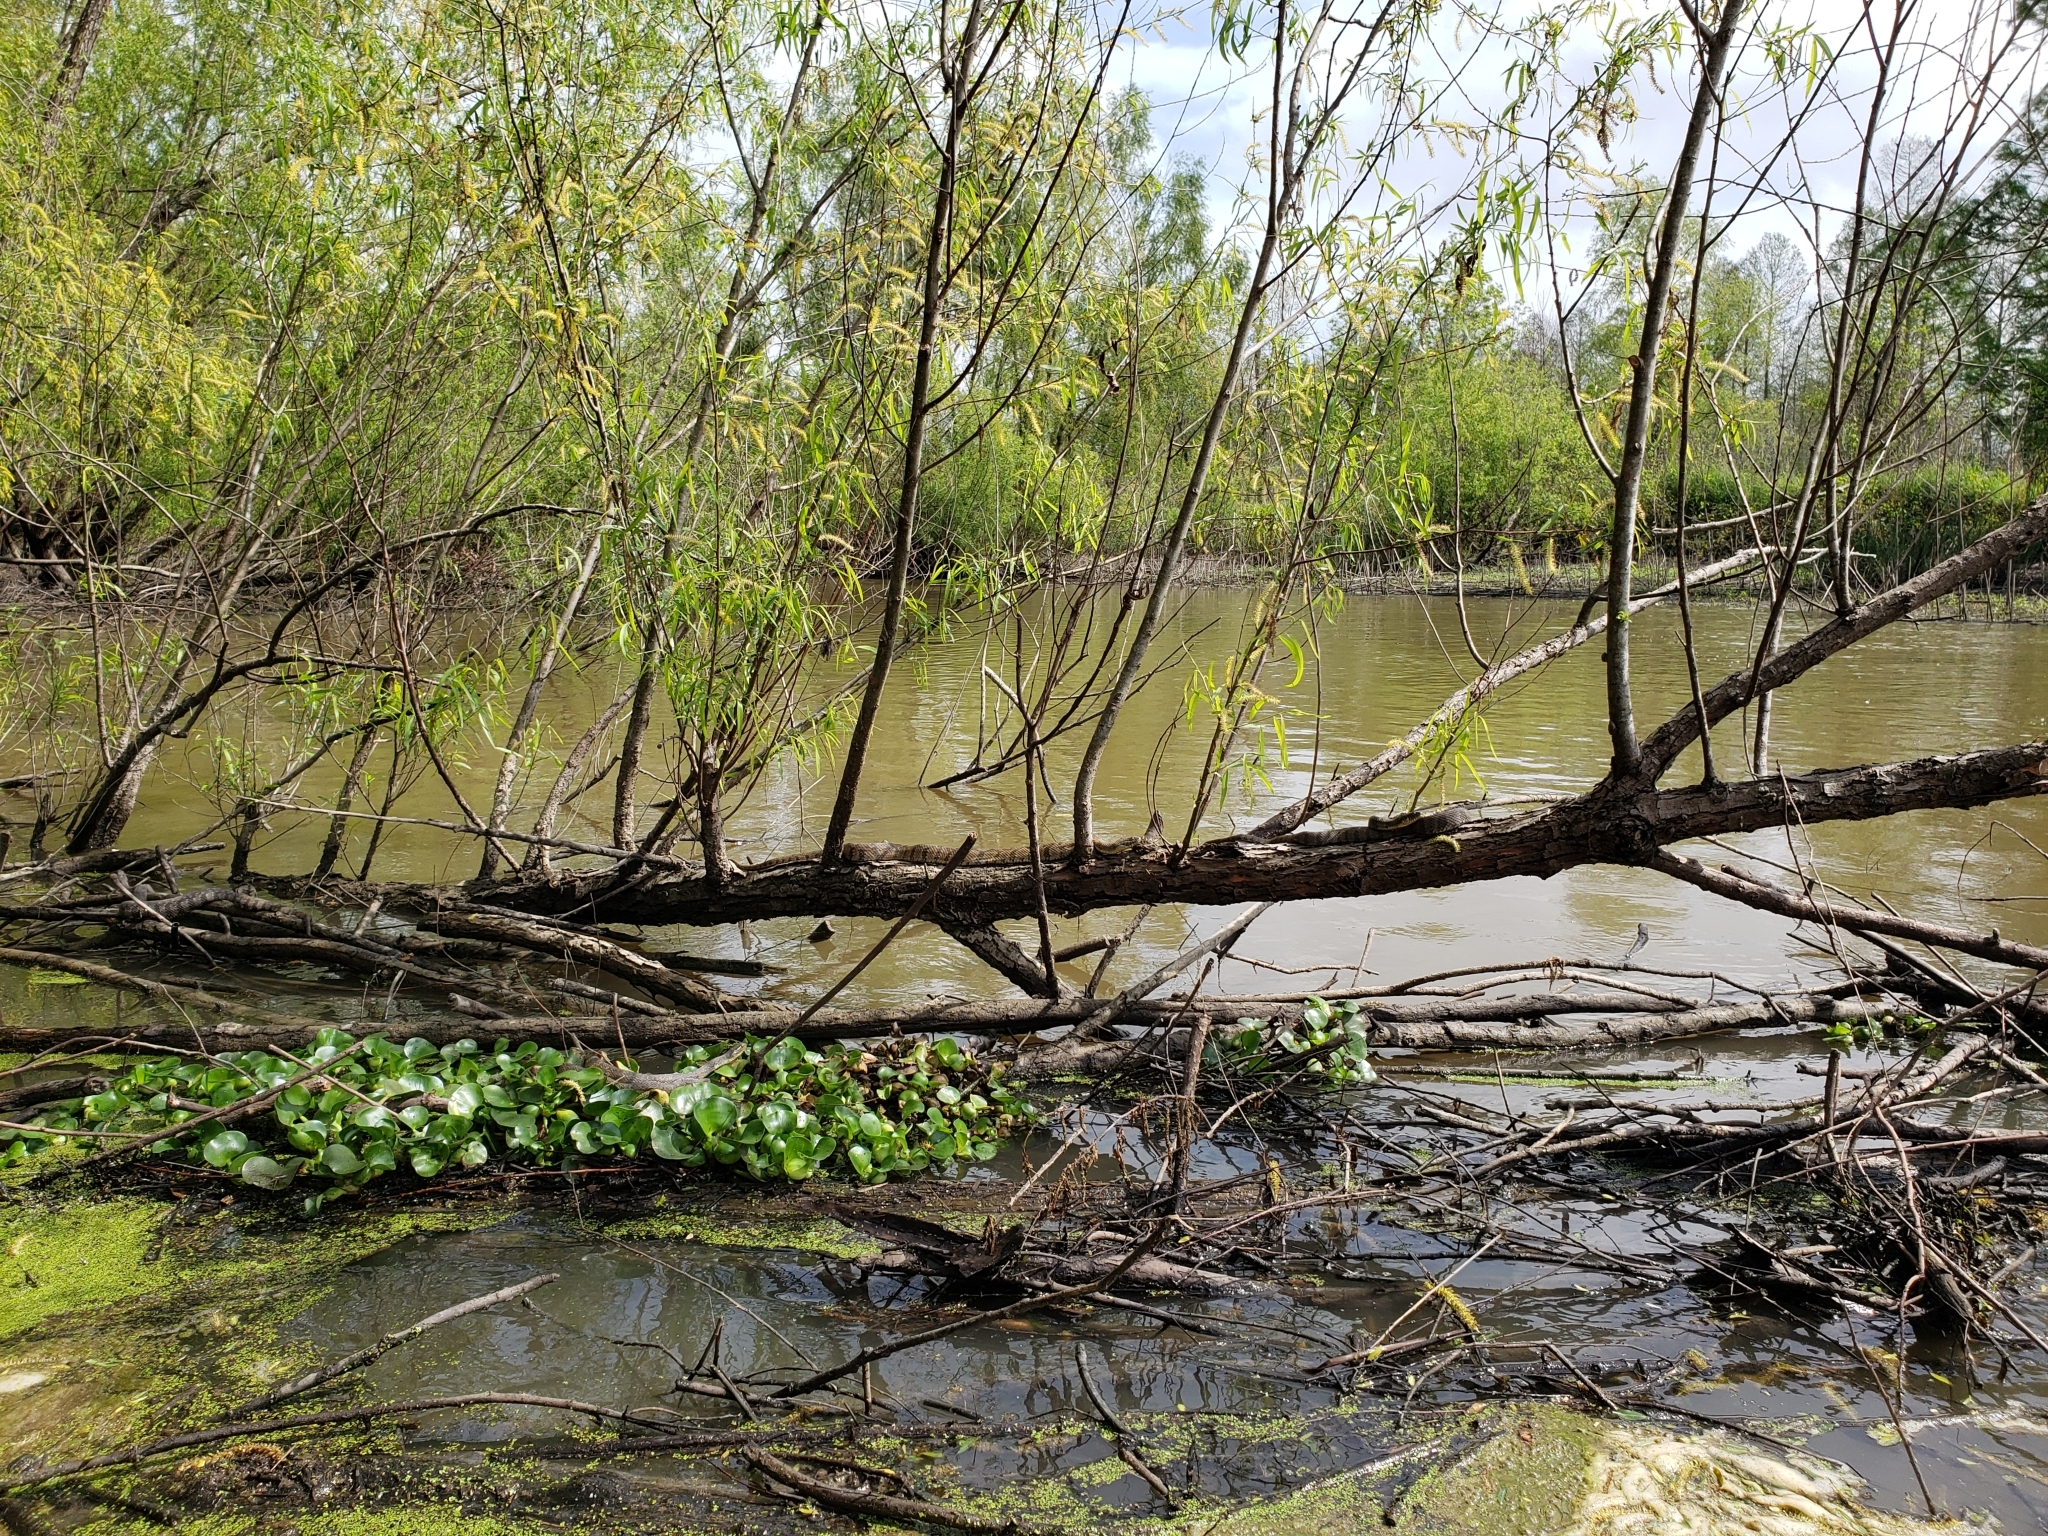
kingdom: Animalia
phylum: Chordata
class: Squamata
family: Colubridae
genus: Nerodia
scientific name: Nerodia rhombifer
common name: Diamondback water snake
